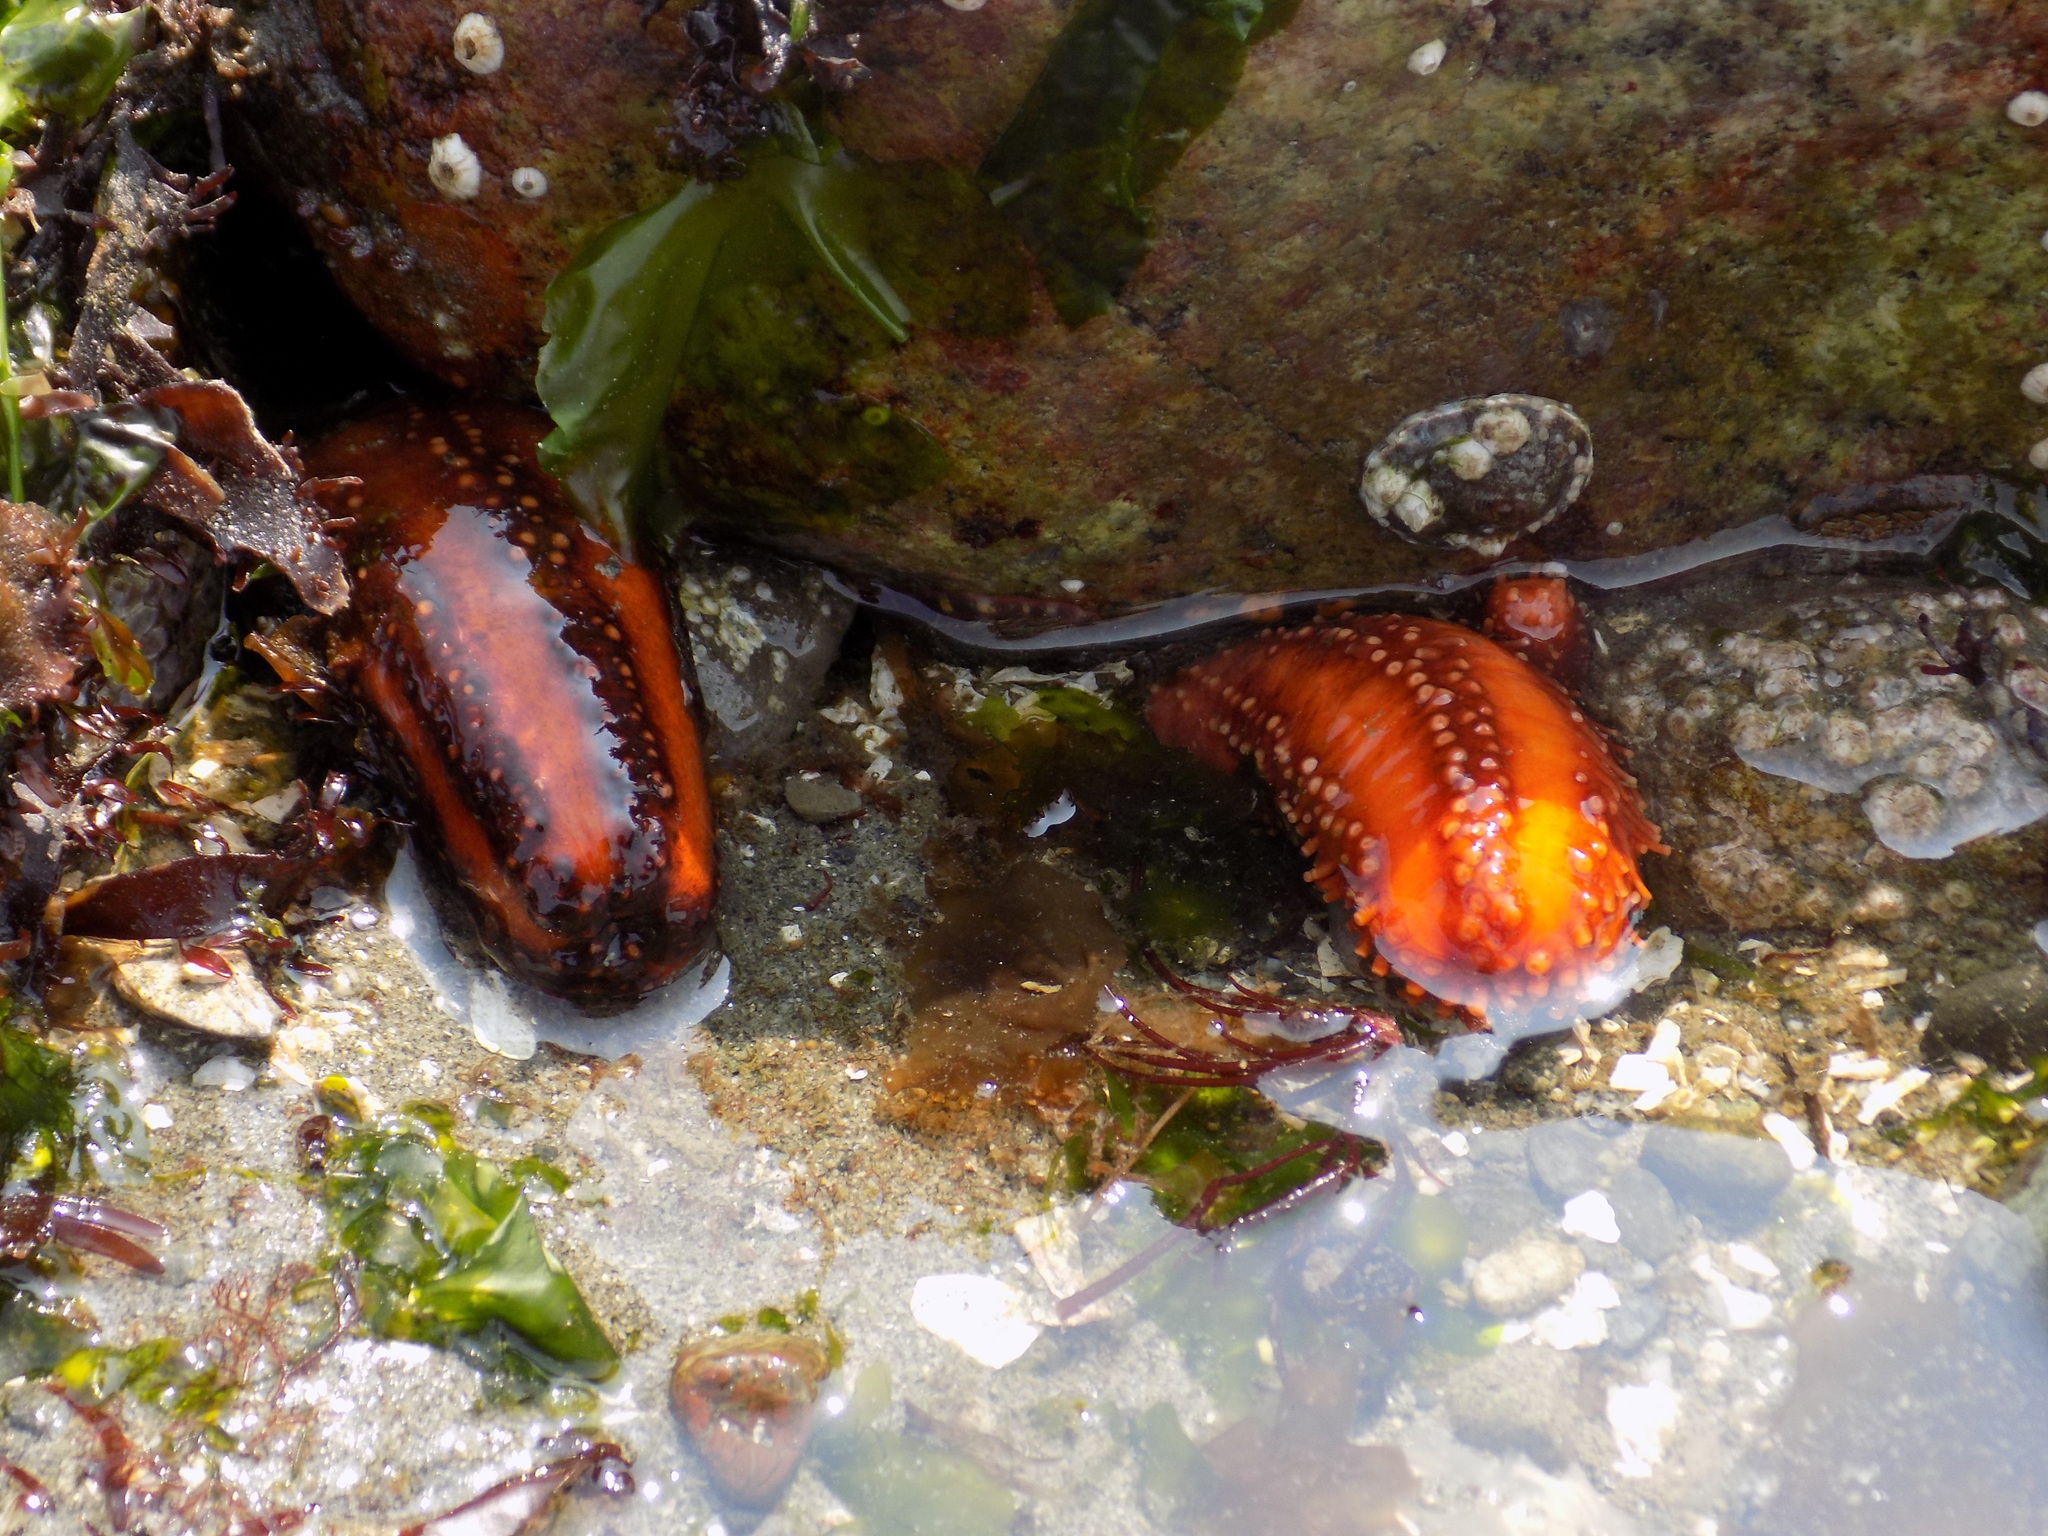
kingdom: Animalia
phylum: Echinodermata
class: Holothuroidea
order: Dendrochirotida
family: Cucumariidae
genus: Cucumaria
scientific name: Cucumaria miniata
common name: Orange sea cucumber
